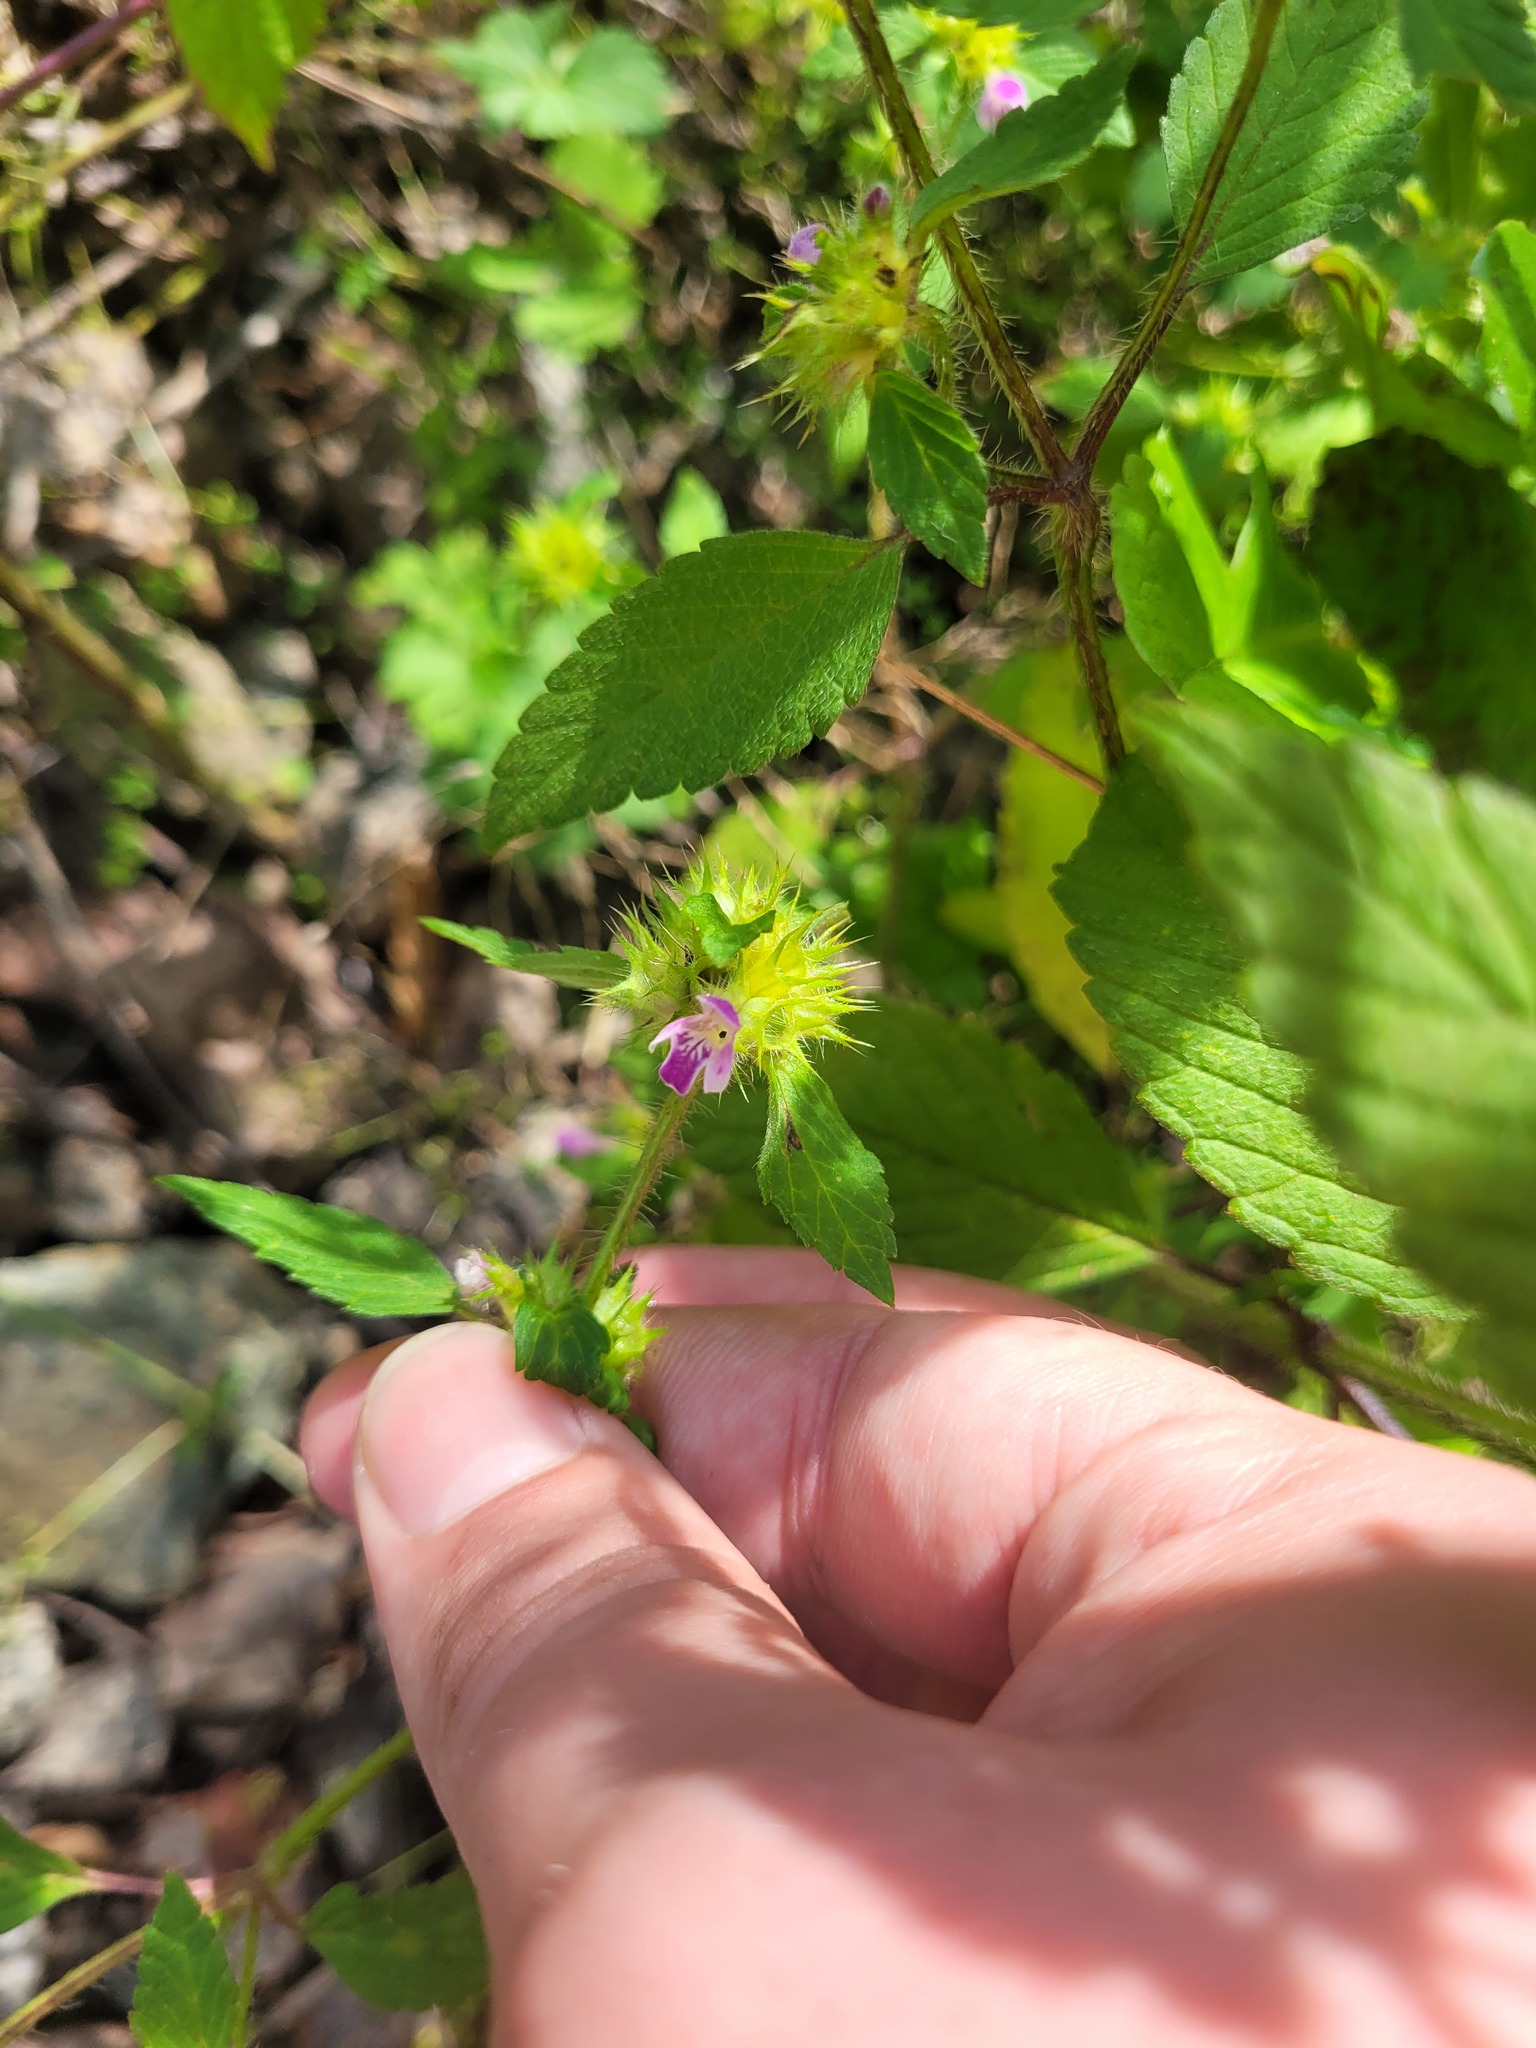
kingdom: Plantae
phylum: Tracheophyta
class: Magnoliopsida
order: Lamiales
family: Lamiaceae
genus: Galeopsis
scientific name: Galeopsis bifida
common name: Bifid hemp-nettle
